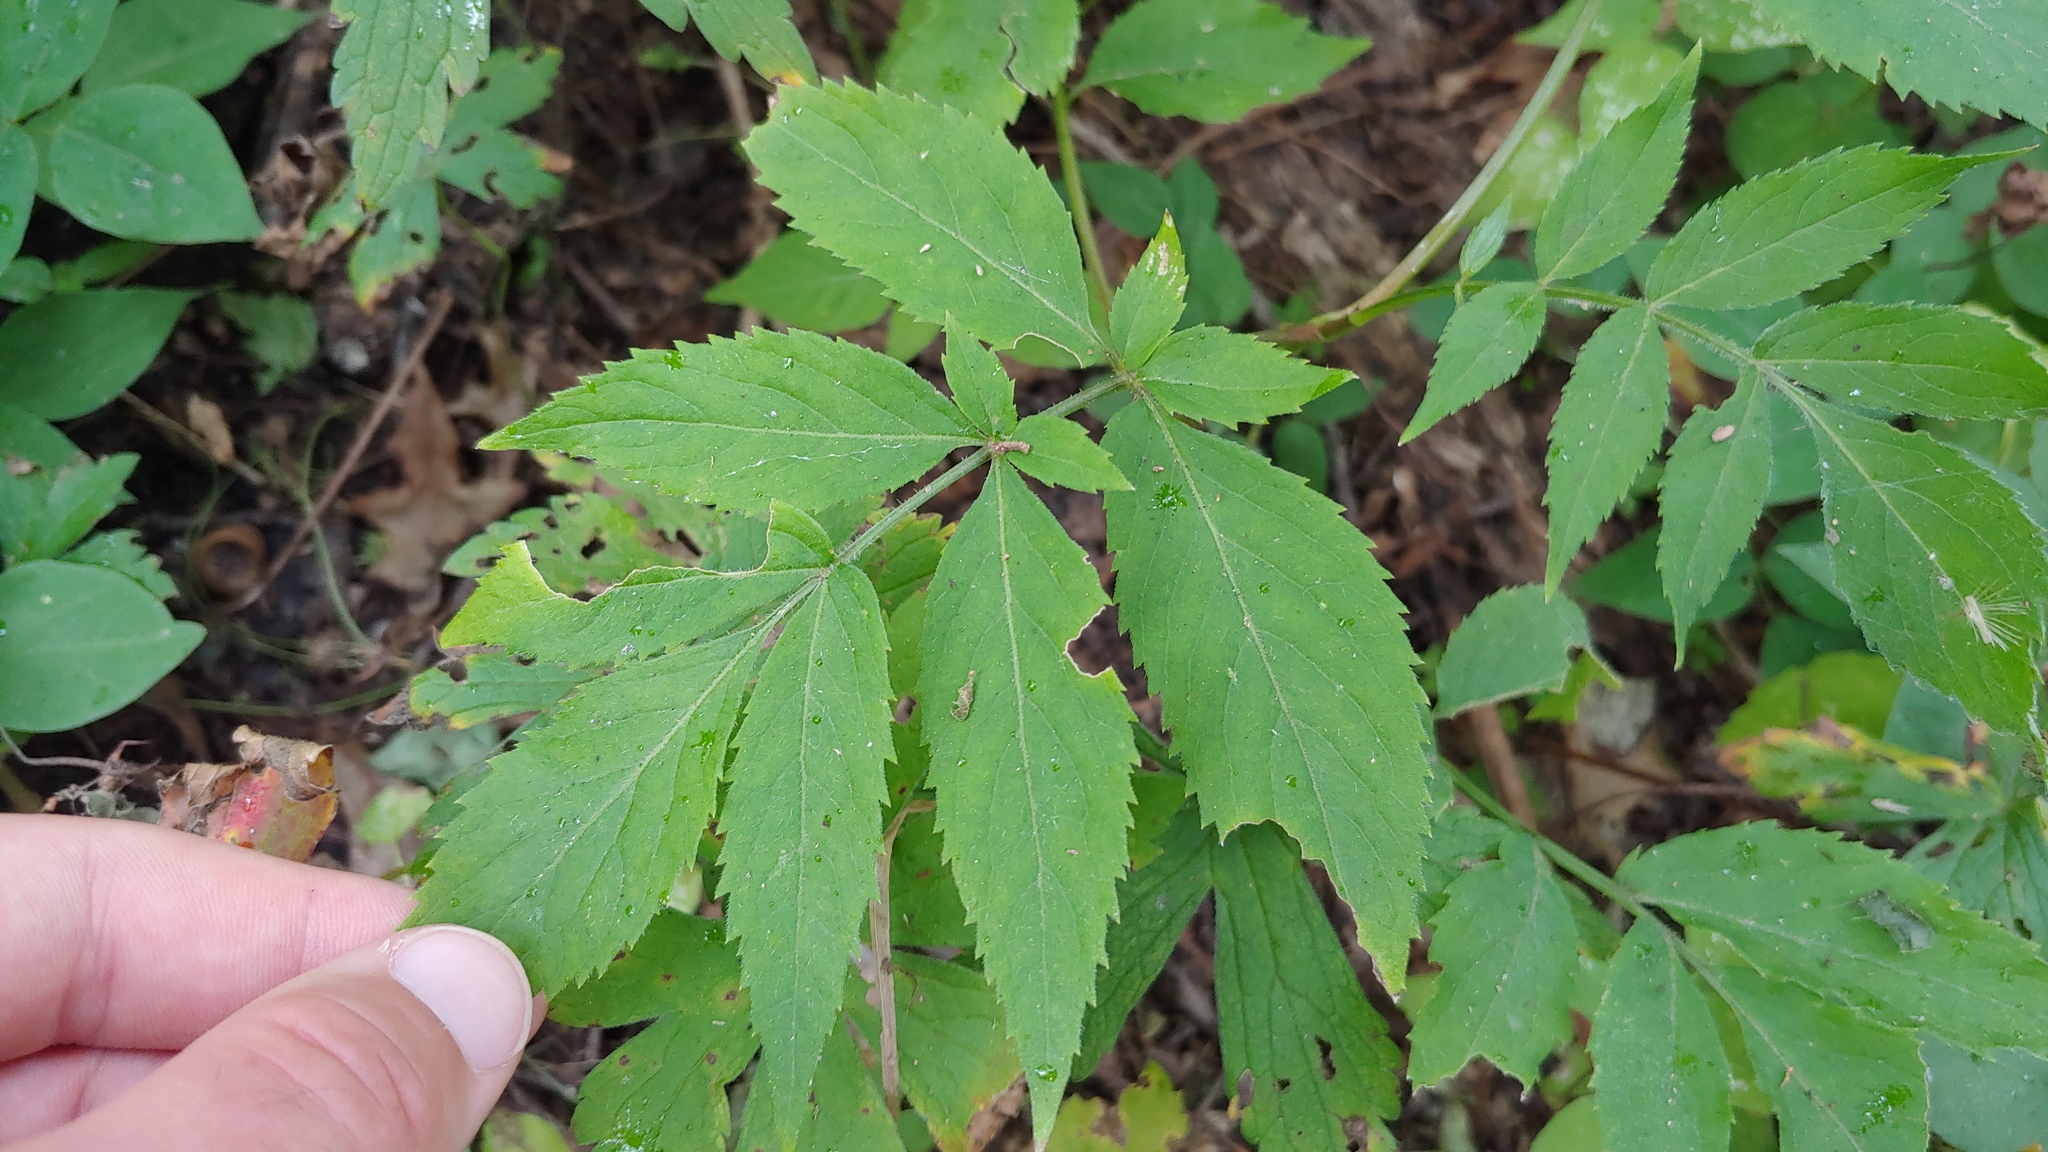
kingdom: Plantae
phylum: Tracheophyta
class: Magnoliopsida
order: Dipsacales
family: Viburnaceae
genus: Sambucus
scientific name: Sambucus racemosa
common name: Red-berried elder
